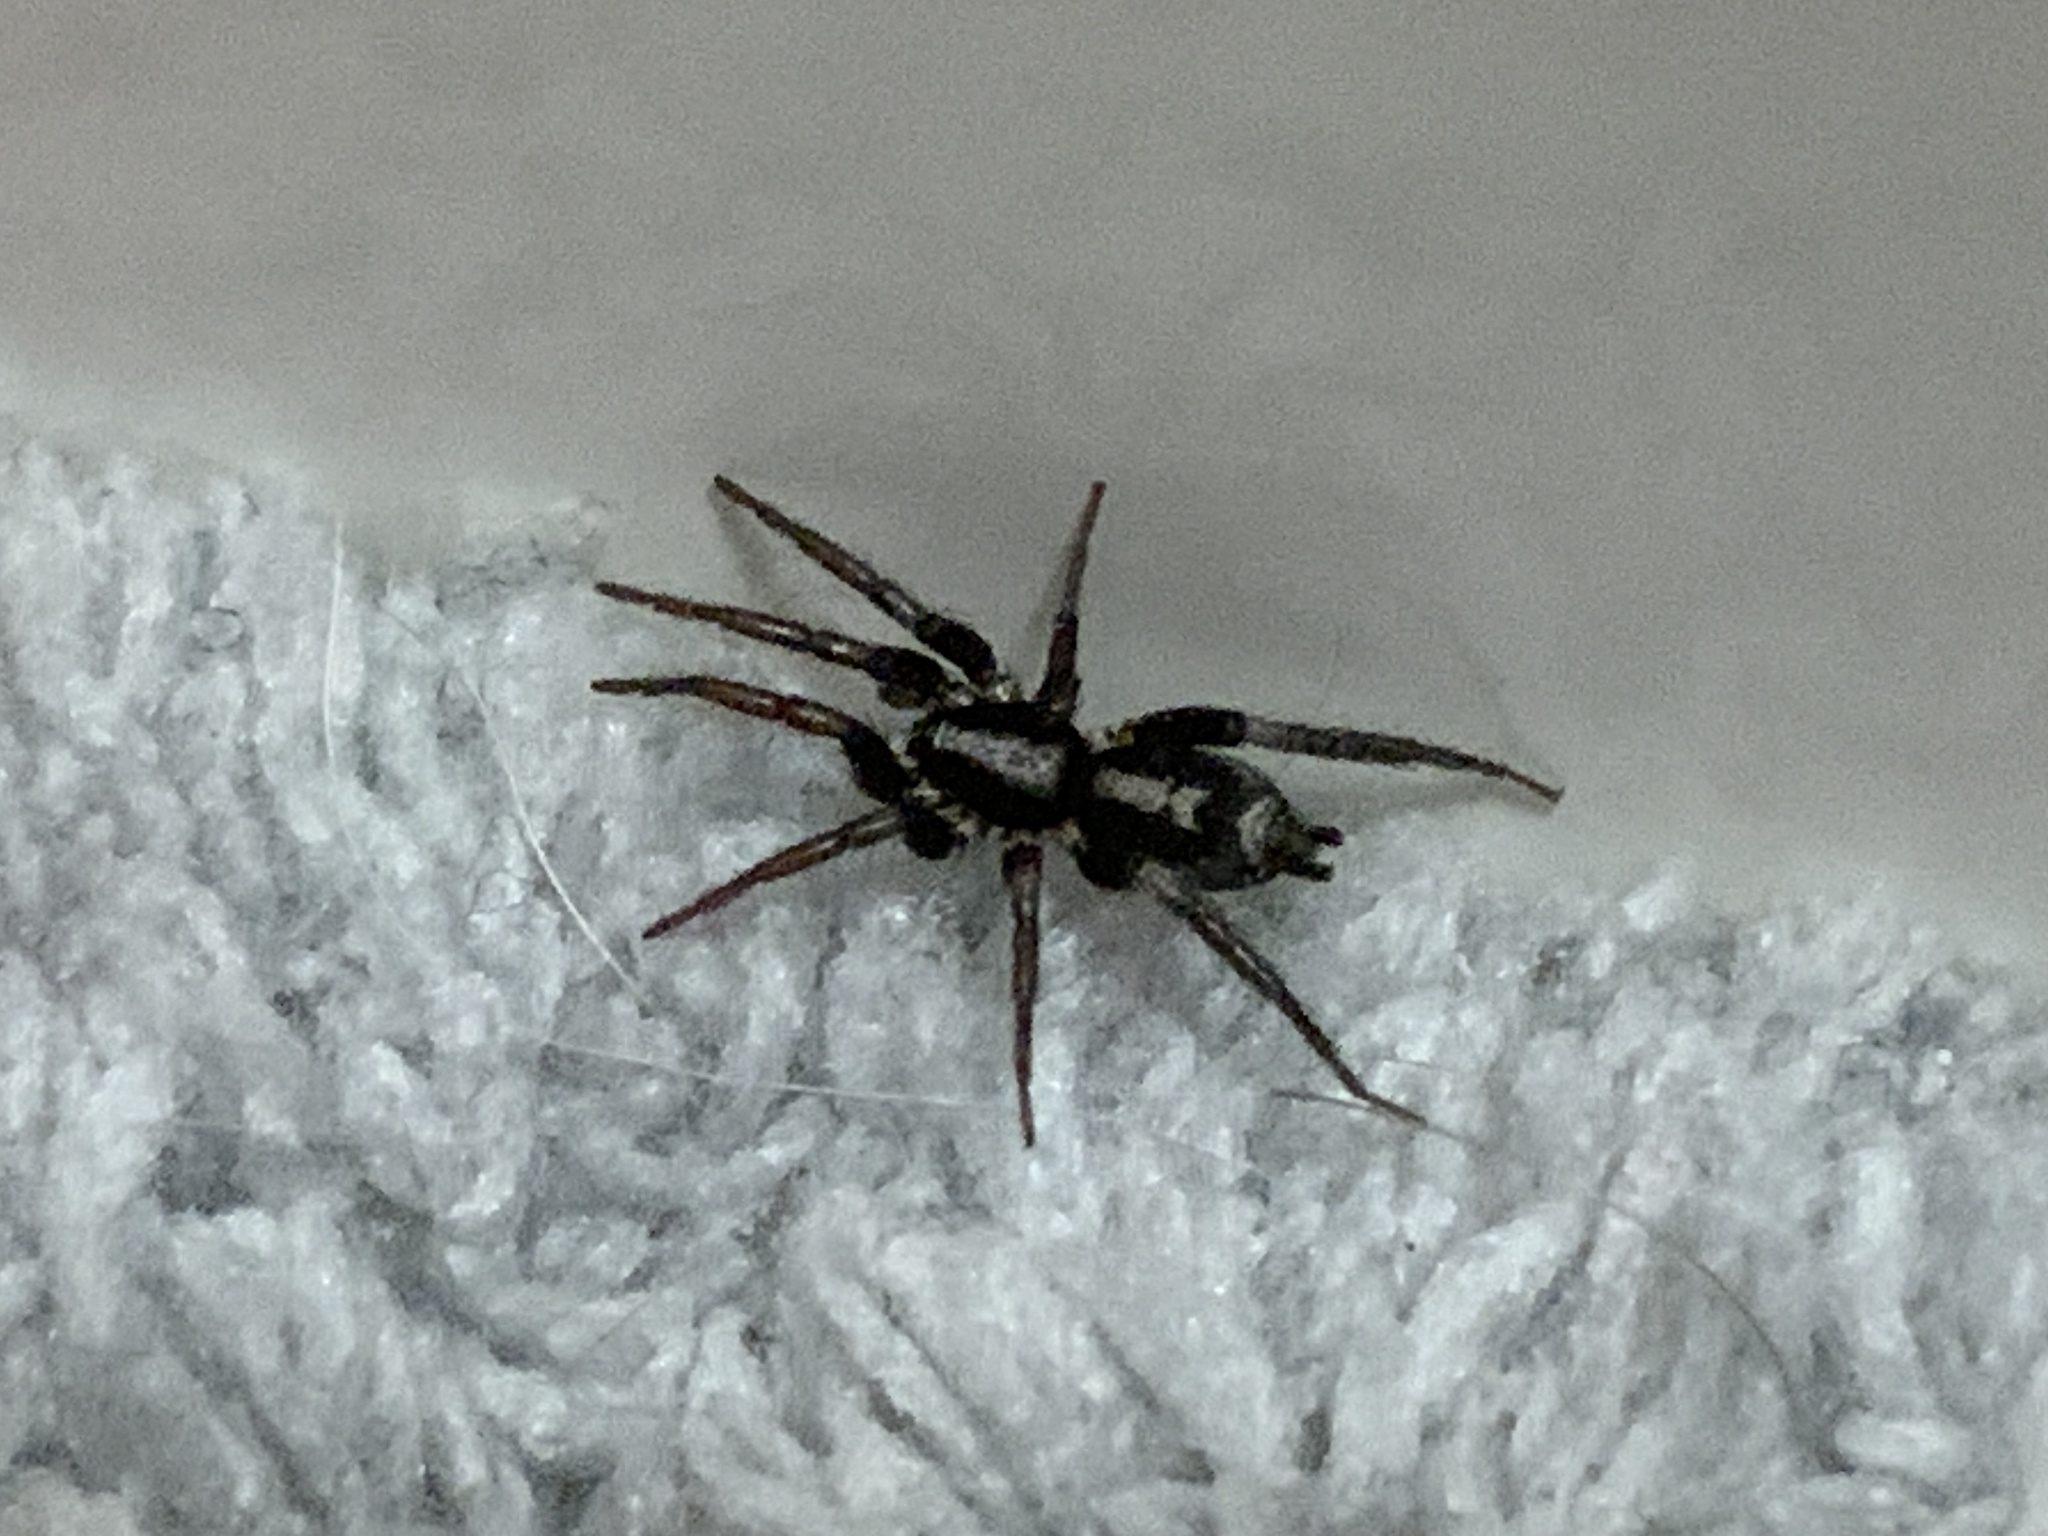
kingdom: Animalia
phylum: Arthropoda
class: Arachnida
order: Araneae
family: Gnaphosidae
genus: Herpyllus
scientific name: Herpyllus ecclesiasticus
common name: Eastern parson spider
